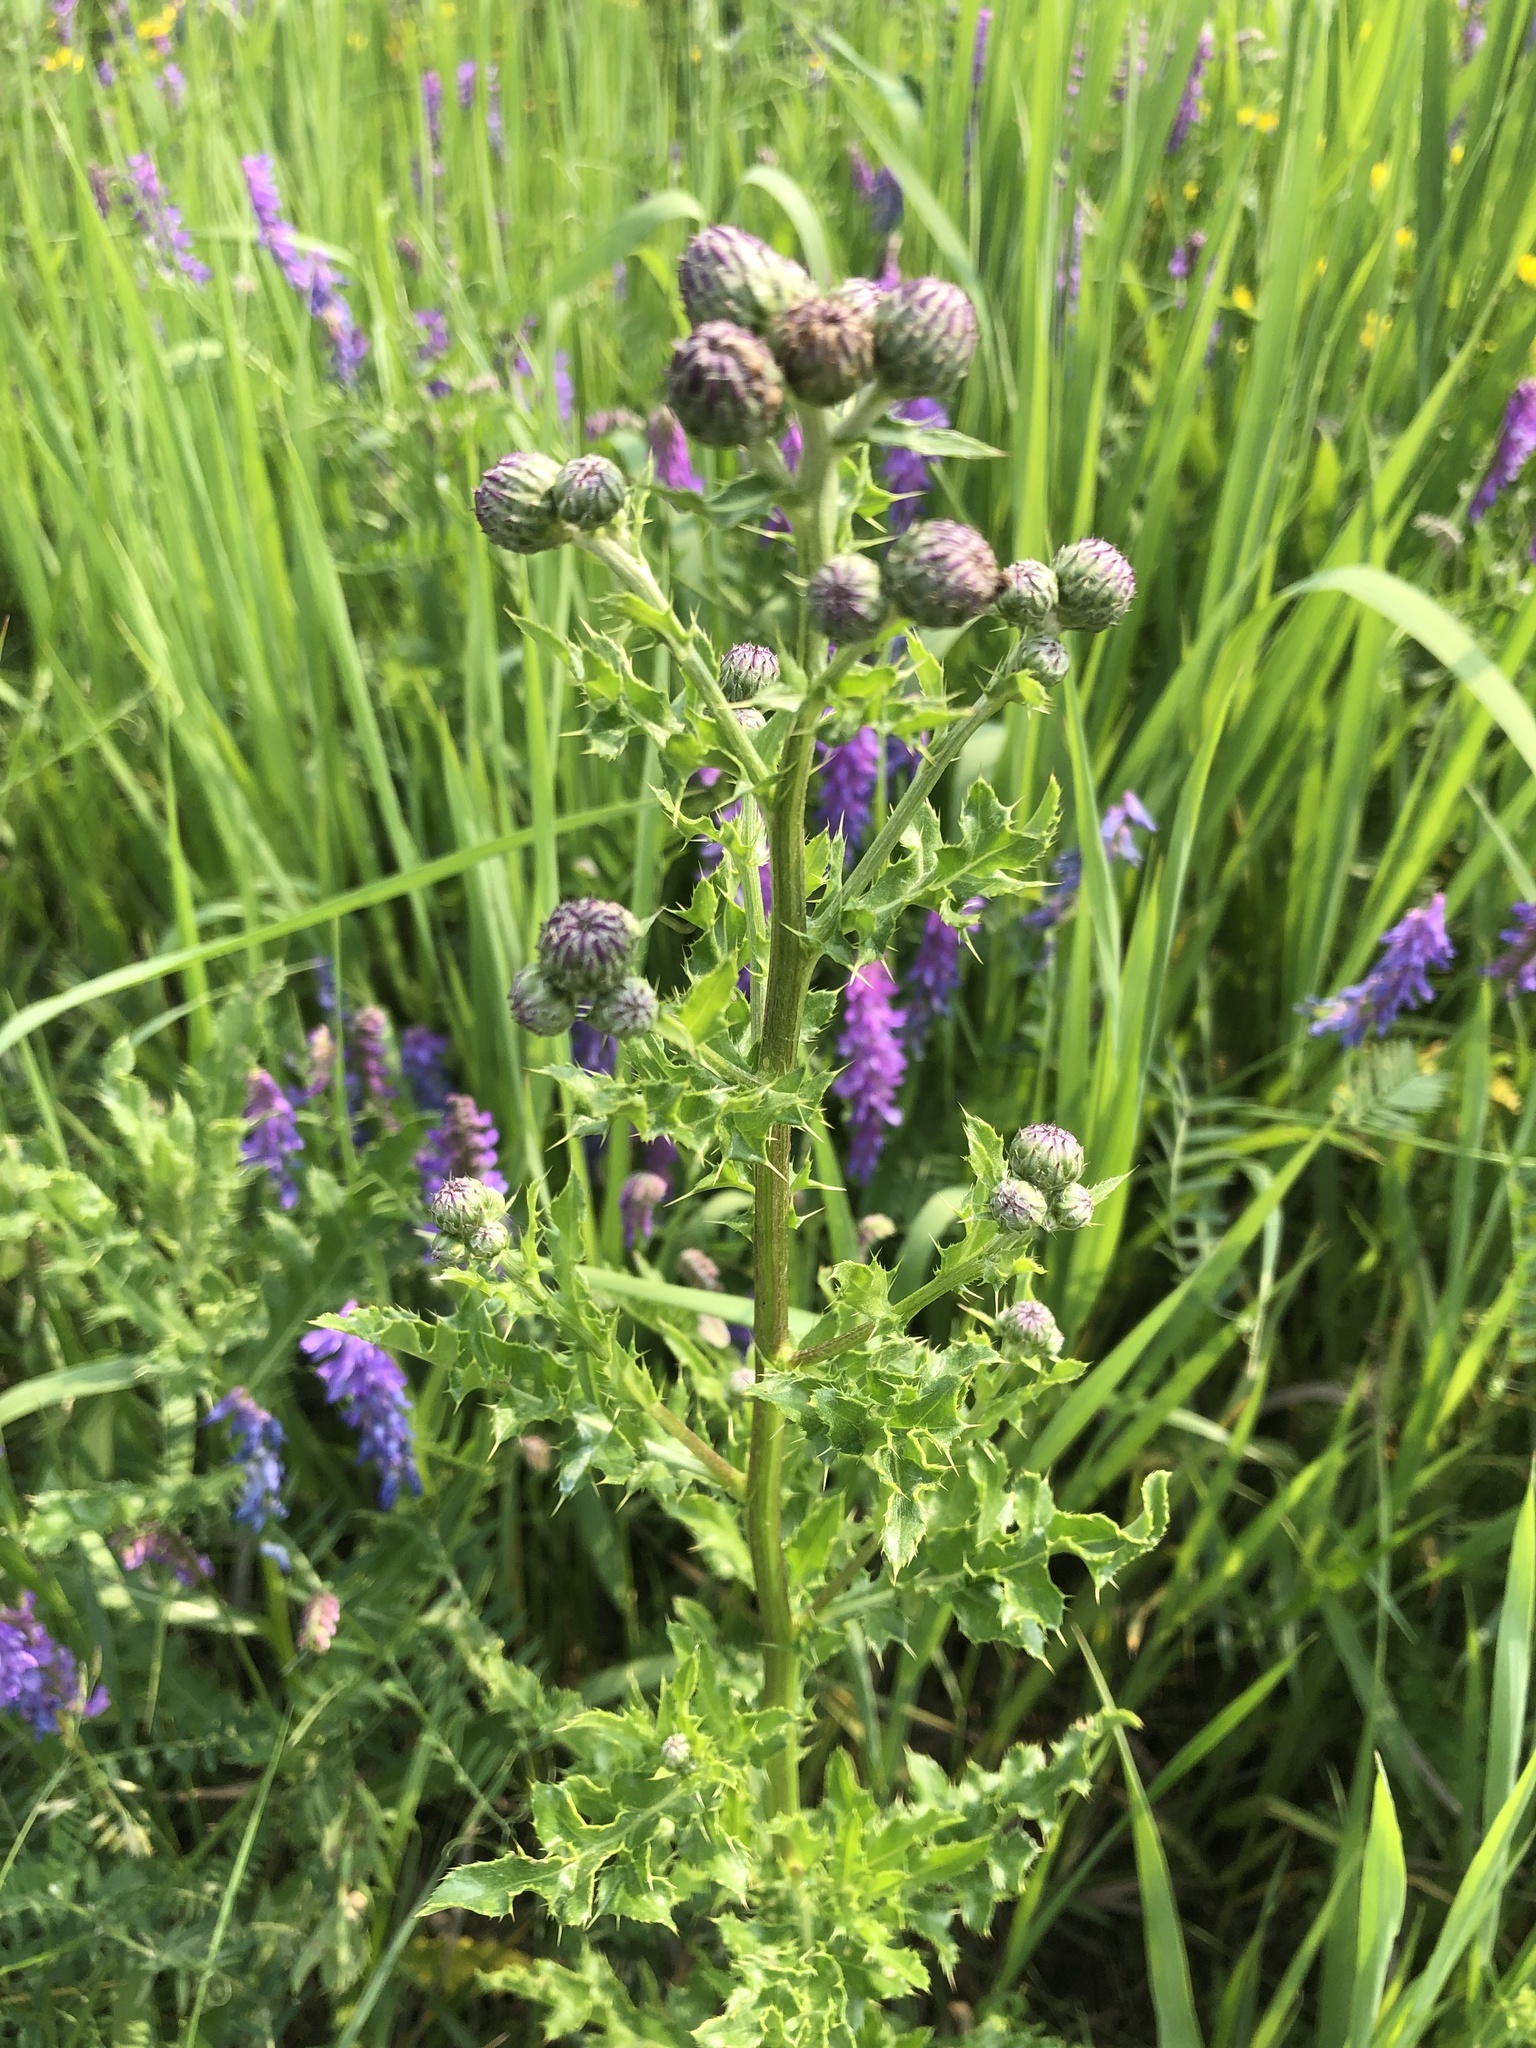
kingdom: Plantae
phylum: Tracheophyta
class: Magnoliopsida
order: Asterales
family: Asteraceae
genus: Cirsium
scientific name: Cirsium arvense
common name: Creeping thistle
